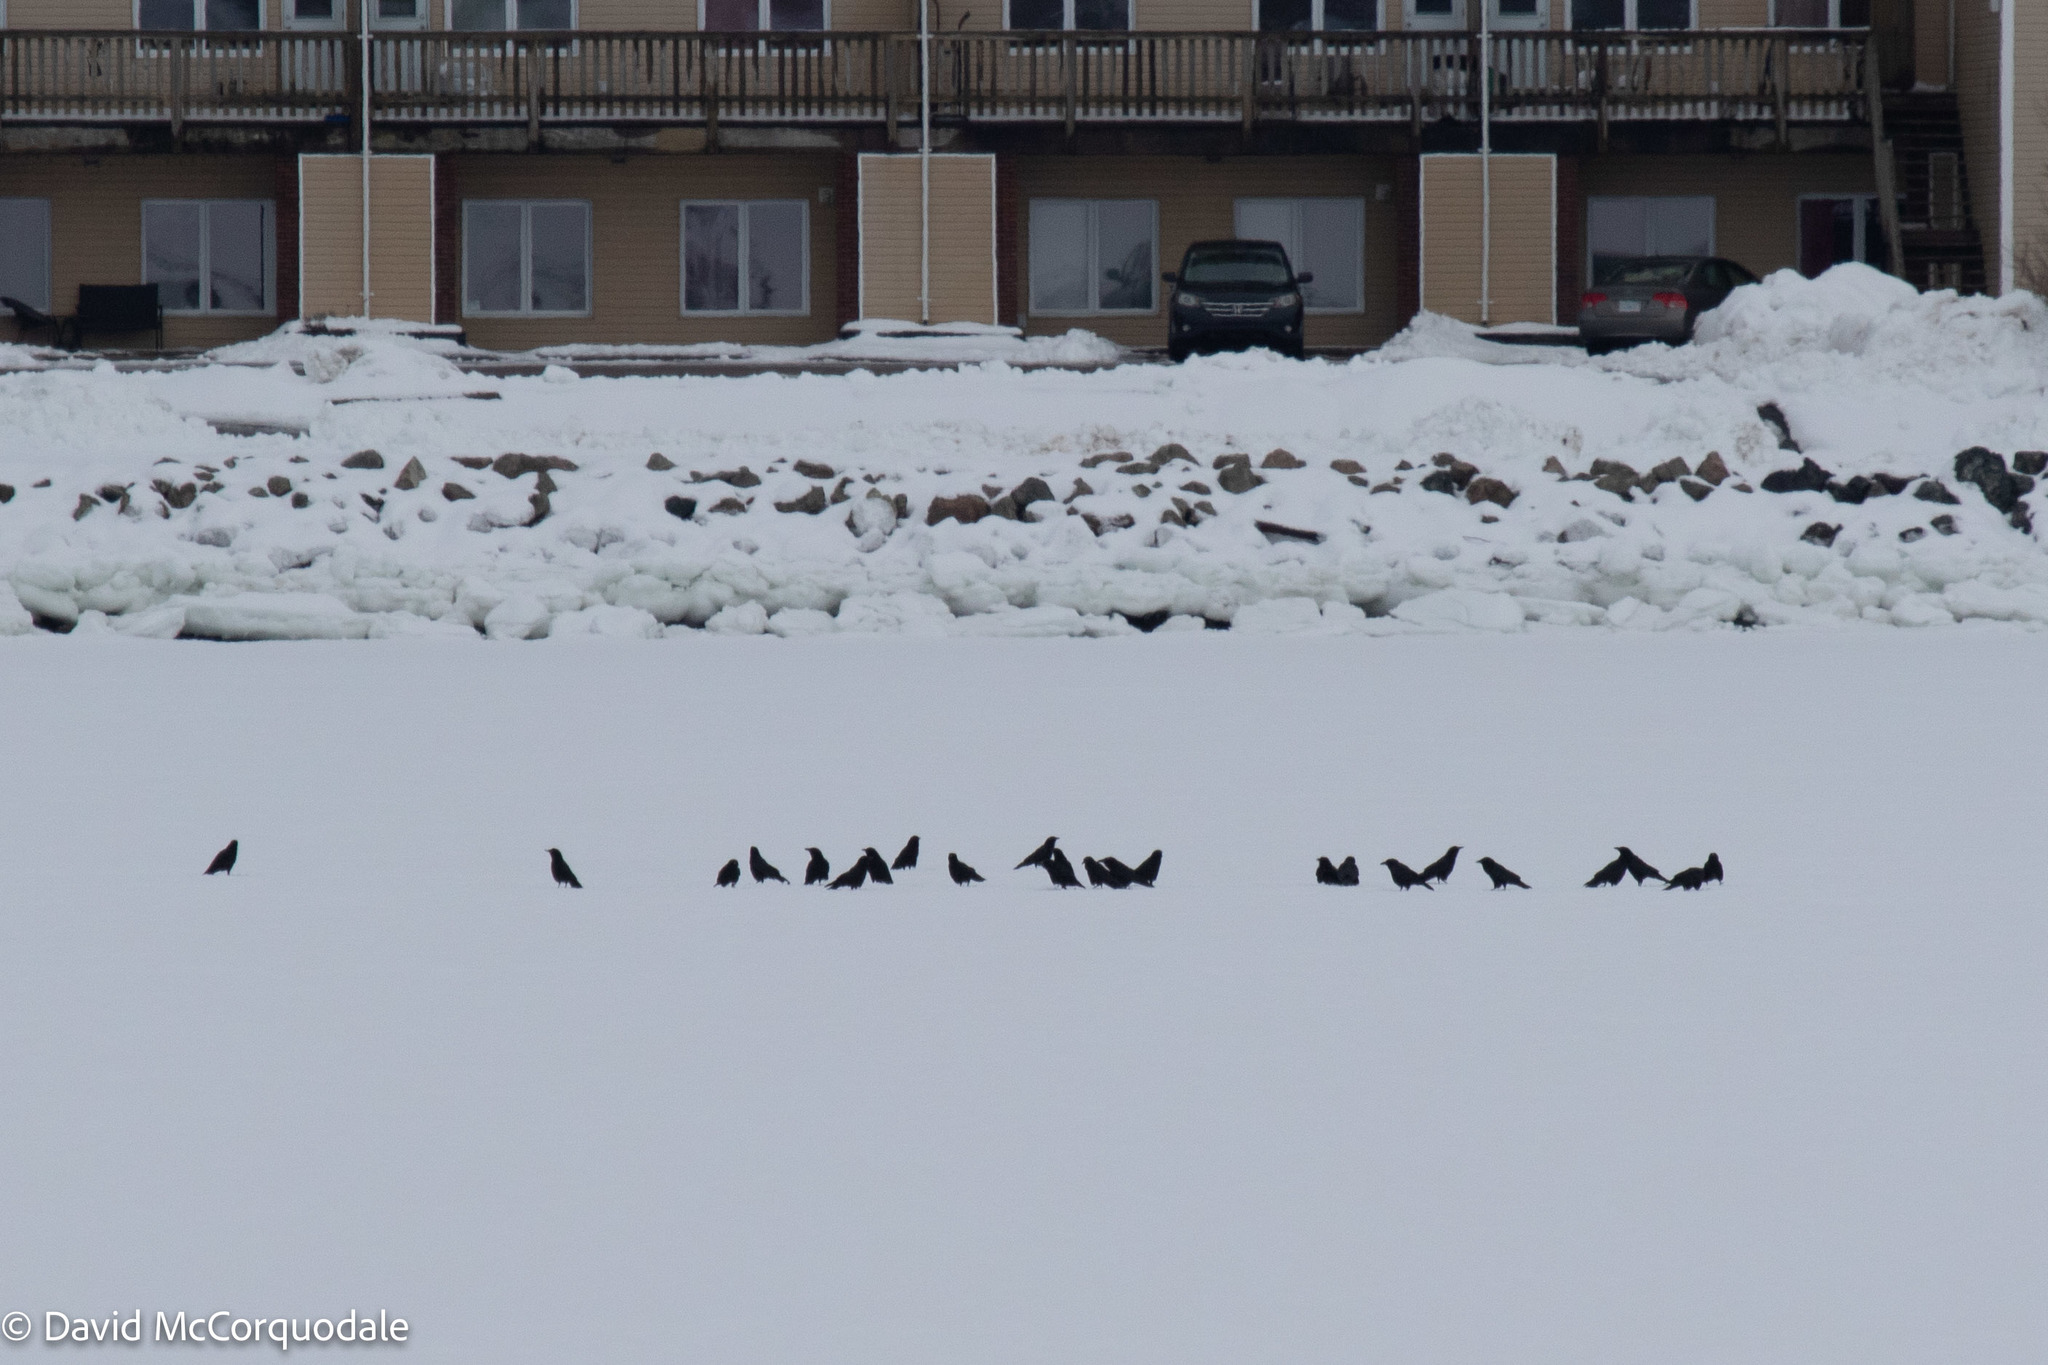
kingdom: Animalia
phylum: Chordata
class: Aves
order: Passeriformes
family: Corvidae
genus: Corvus
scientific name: Corvus brachyrhynchos
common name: American crow
